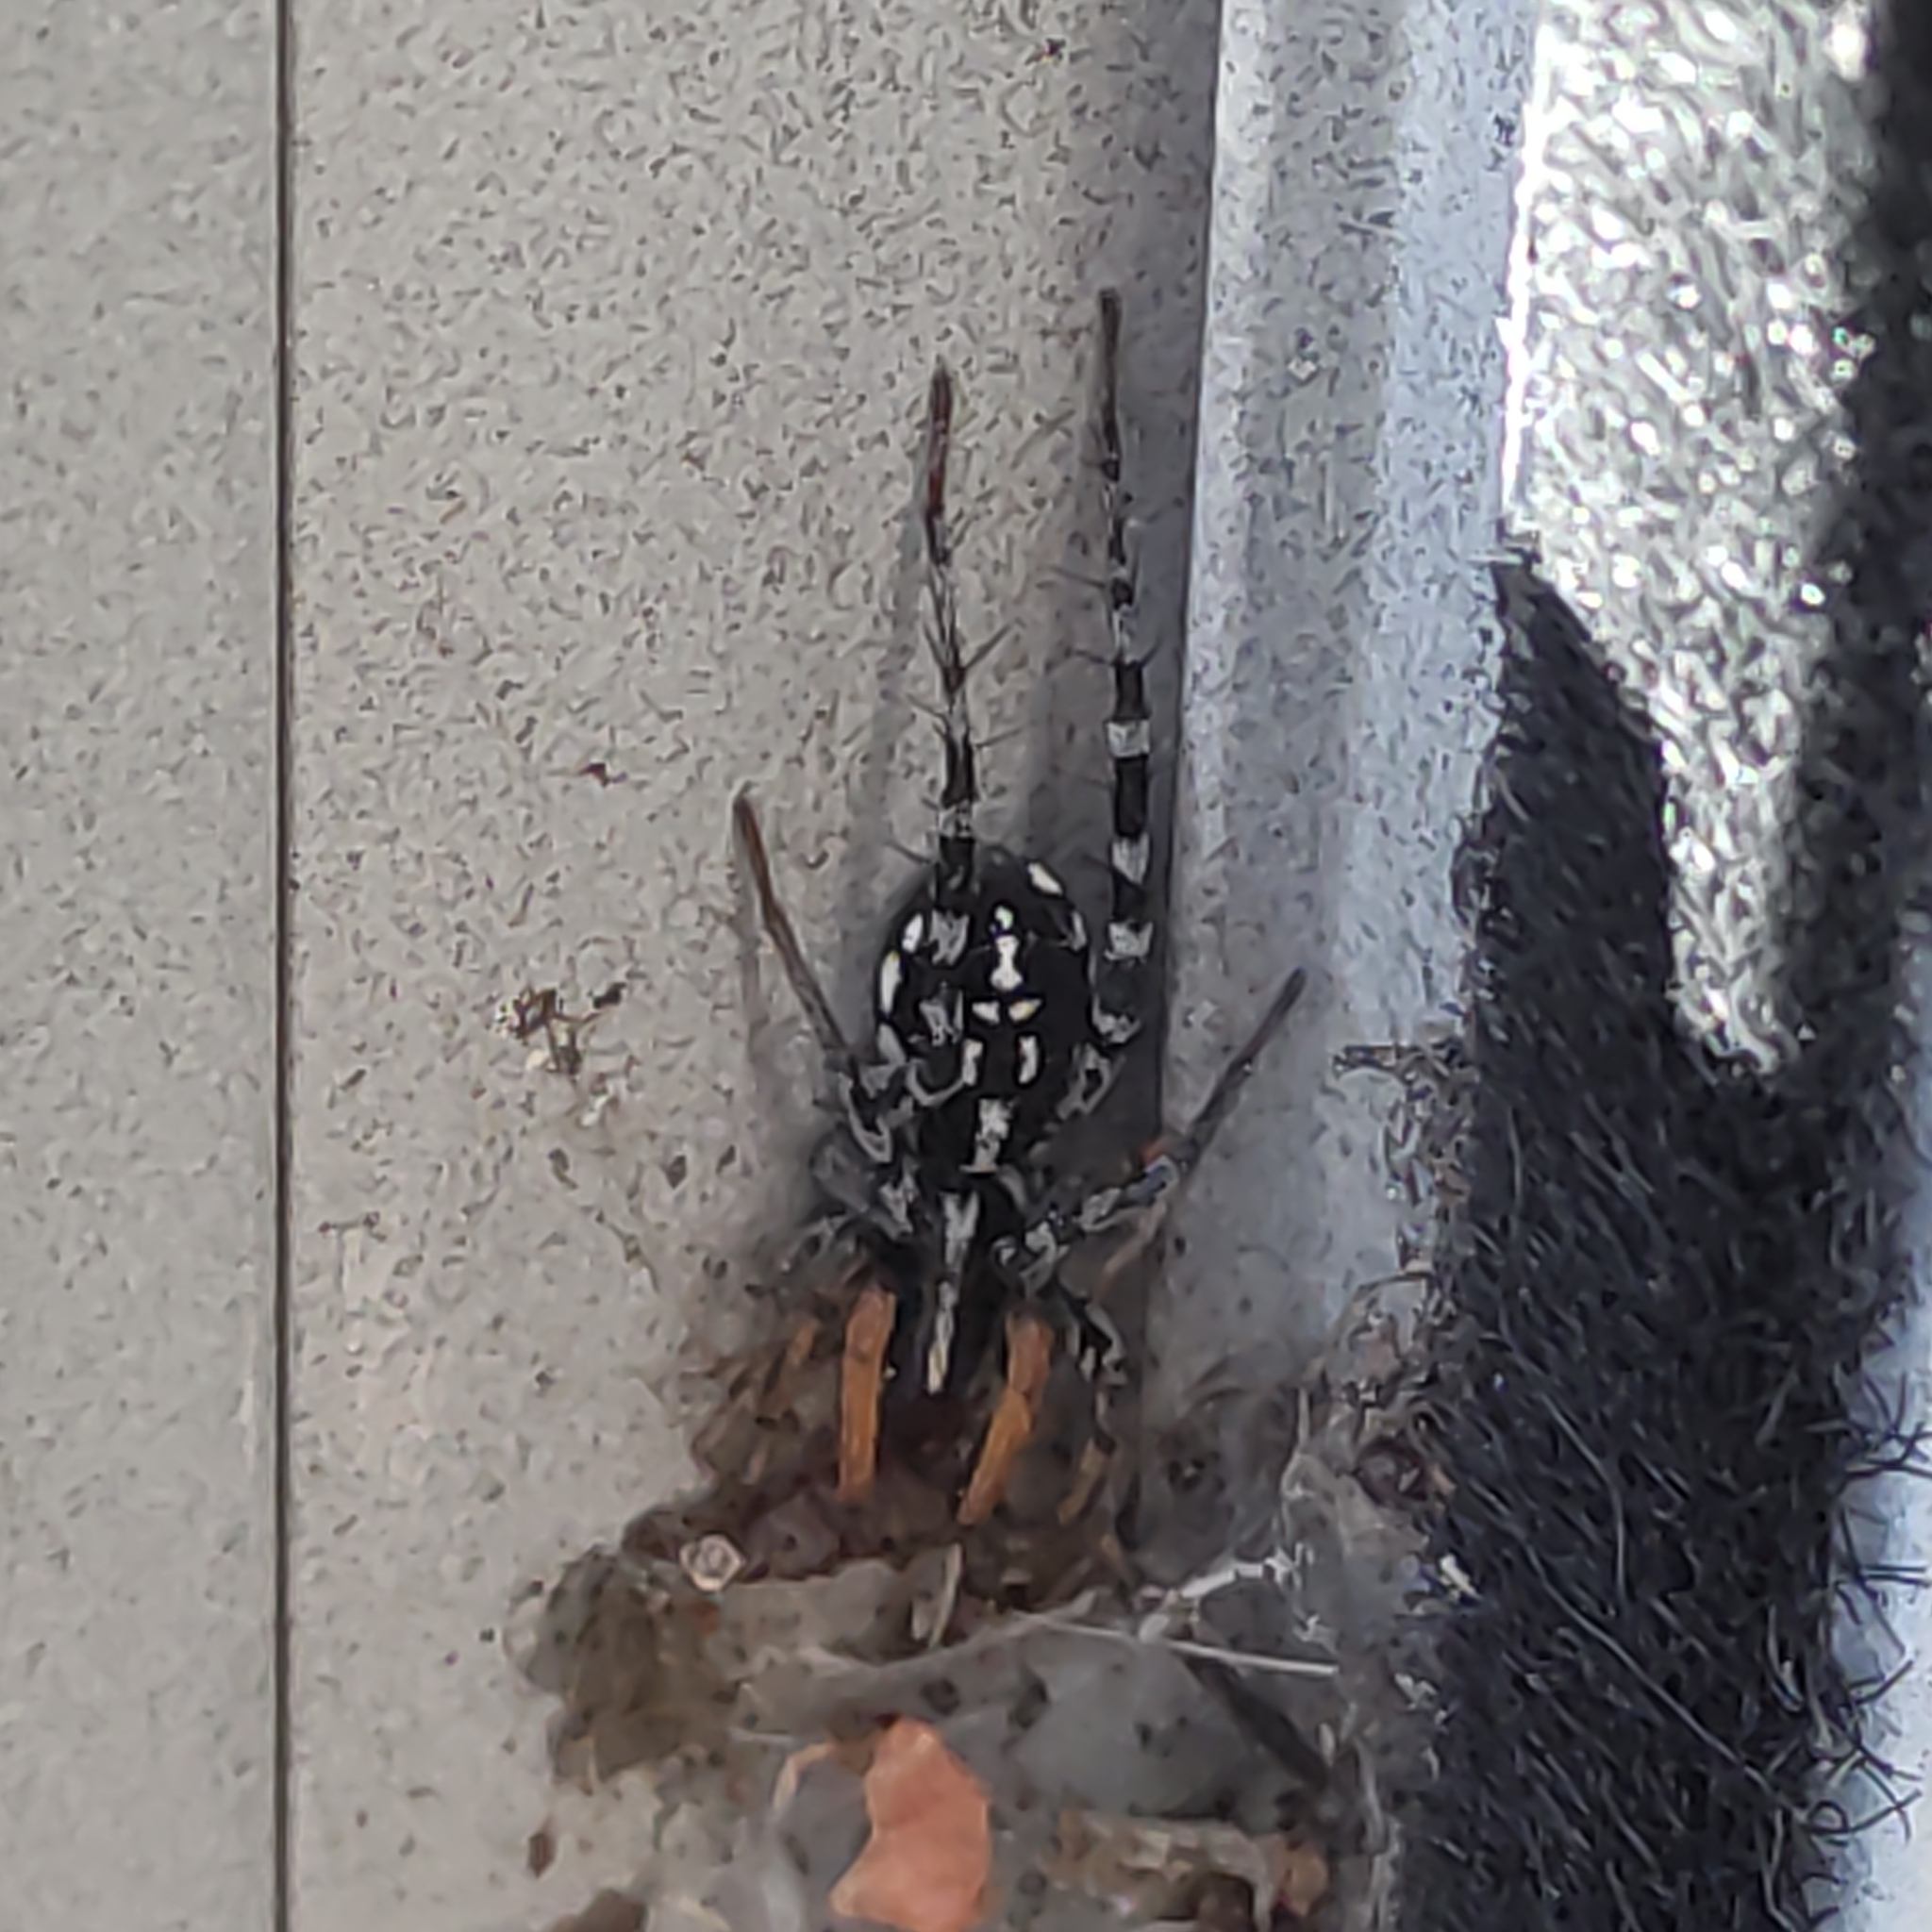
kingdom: Animalia
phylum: Arthropoda
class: Arachnida
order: Araneae
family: Corinnidae
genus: Nyssus
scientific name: Nyssus coloripes
